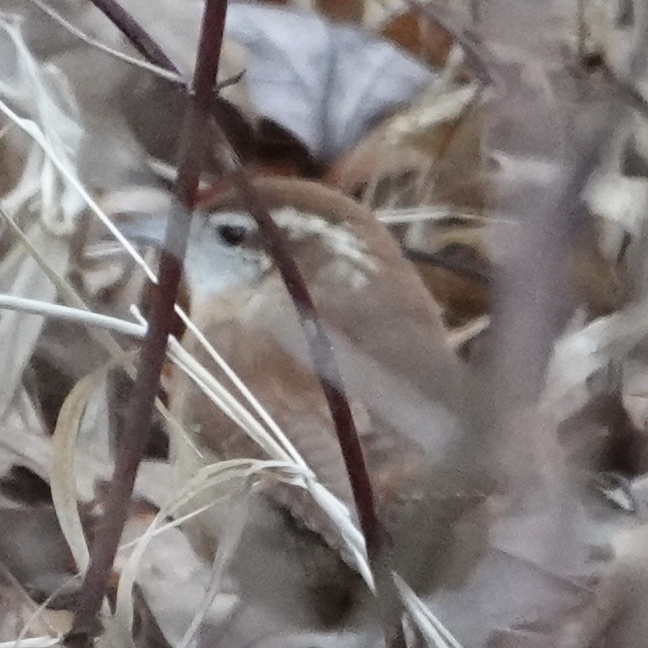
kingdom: Animalia
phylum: Chordata
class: Aves
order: Passeriformes
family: Troglodytidae
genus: Thryothorus
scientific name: Thryothorus ludovicianus
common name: Carolina wren
